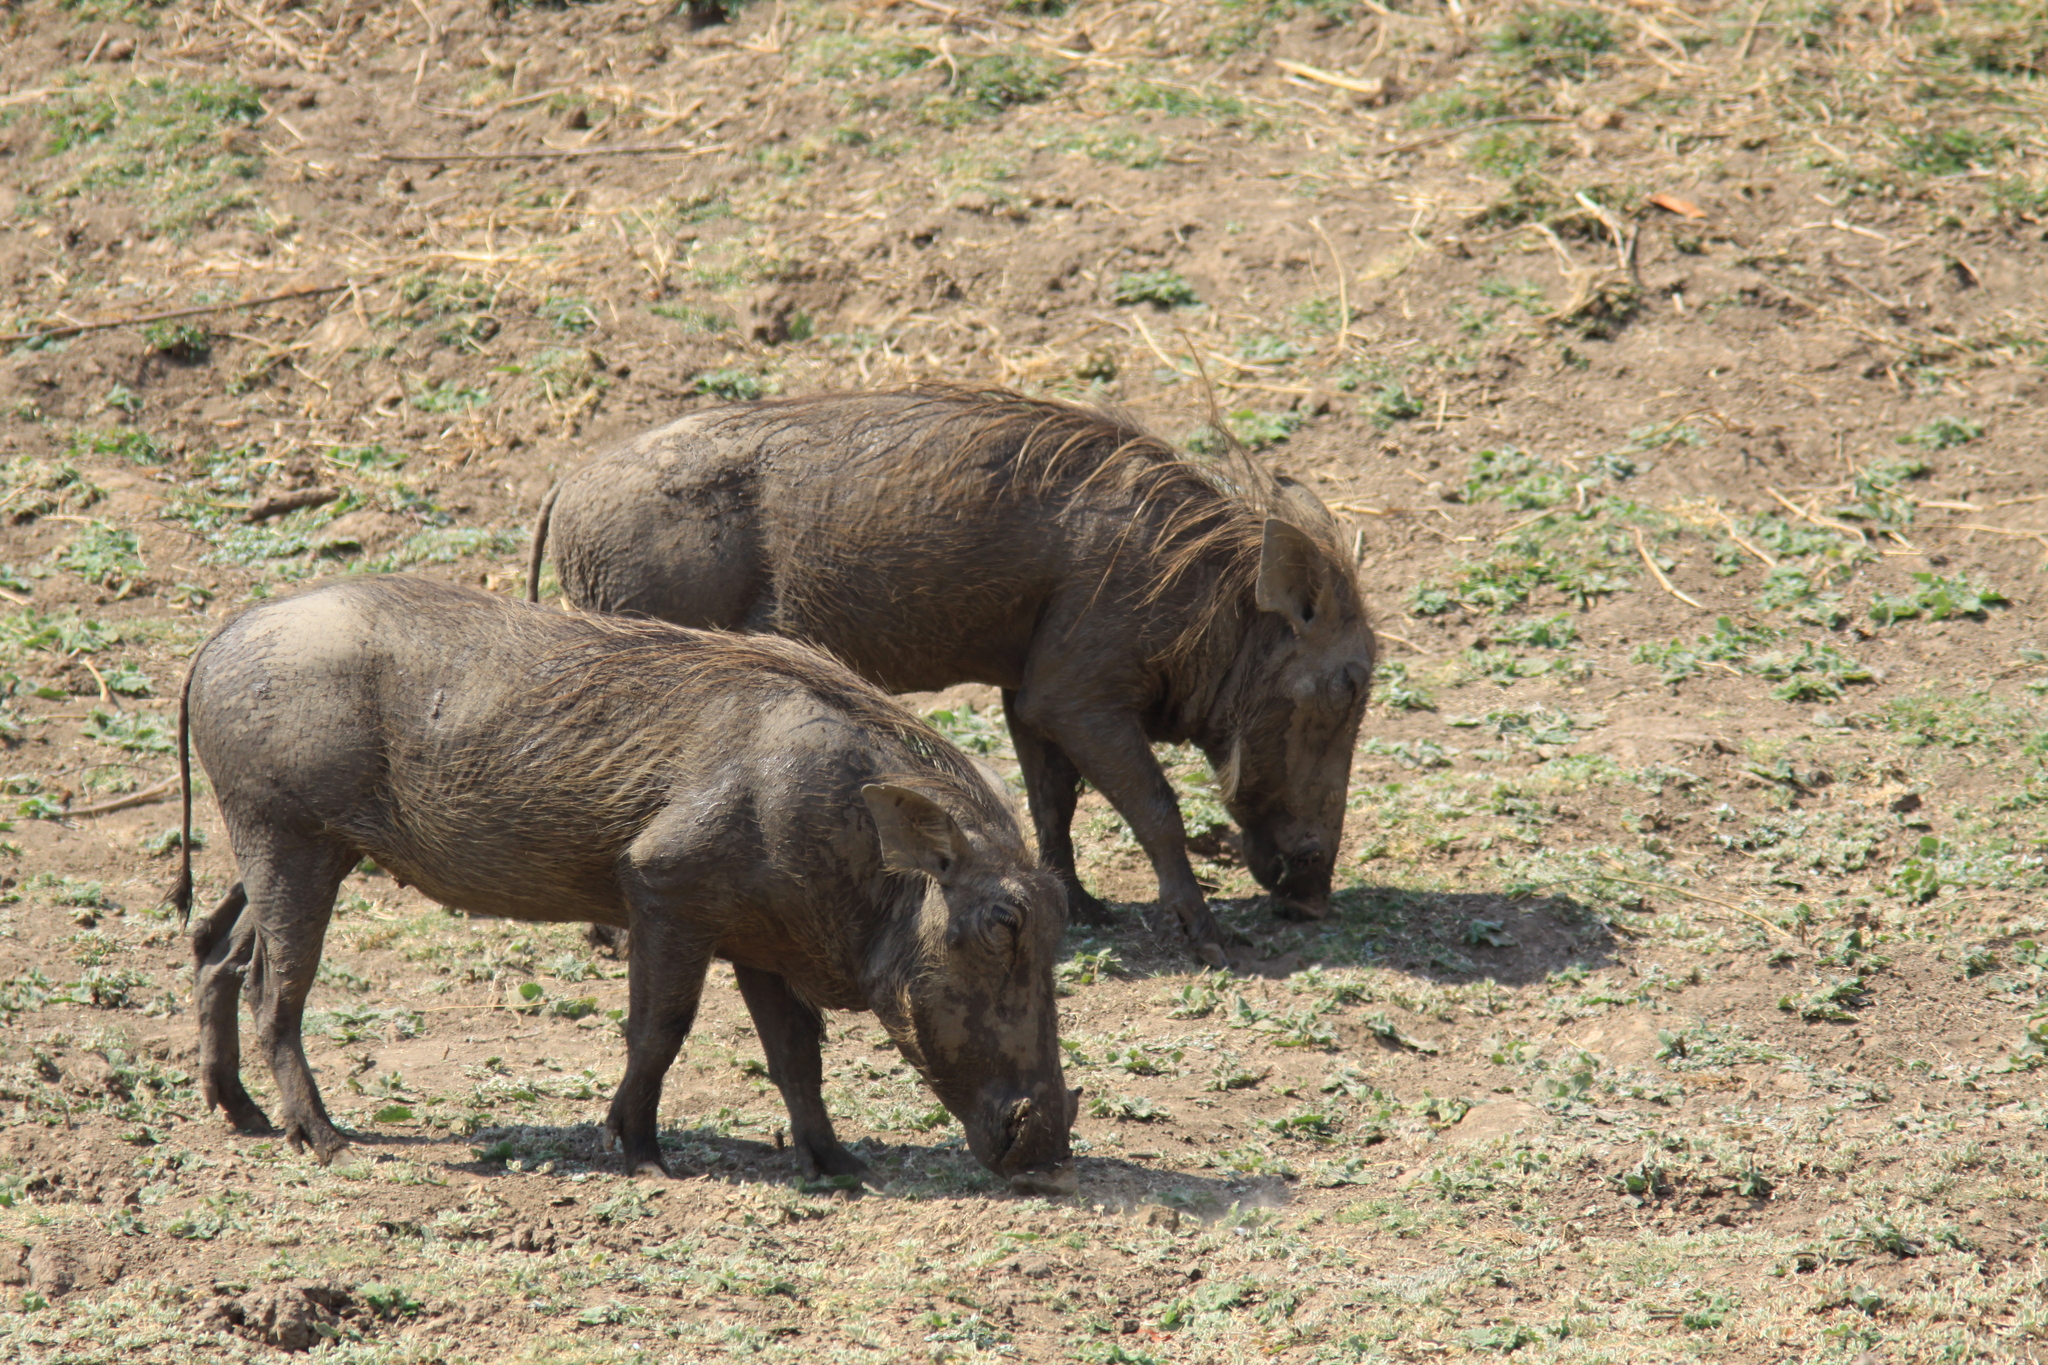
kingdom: Animalia
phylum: Chordata
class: Mammalia
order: Artiodactyla
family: Suidae
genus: Phacochoerus
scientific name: Phacochoerus africanus
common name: Common warthog
